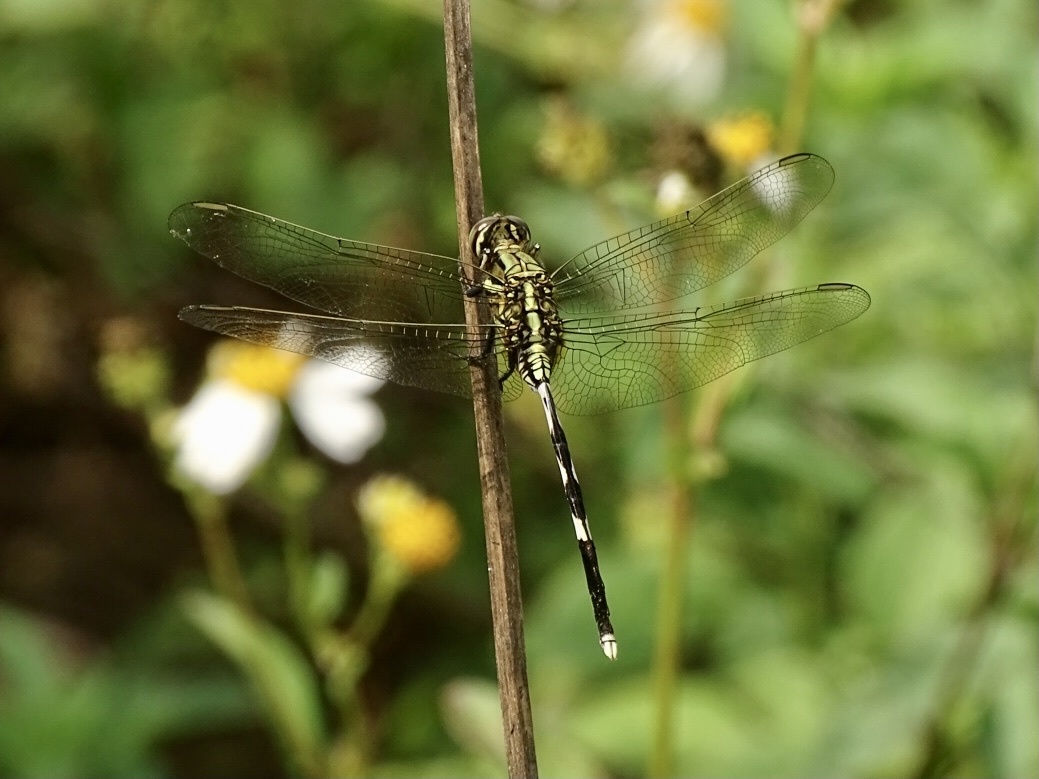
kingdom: Animalia
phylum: Arthropoda
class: Insecta
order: Odonata
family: Libellulidae
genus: Orthetrum
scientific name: Orthetrum sabina
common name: Slender skimmer
